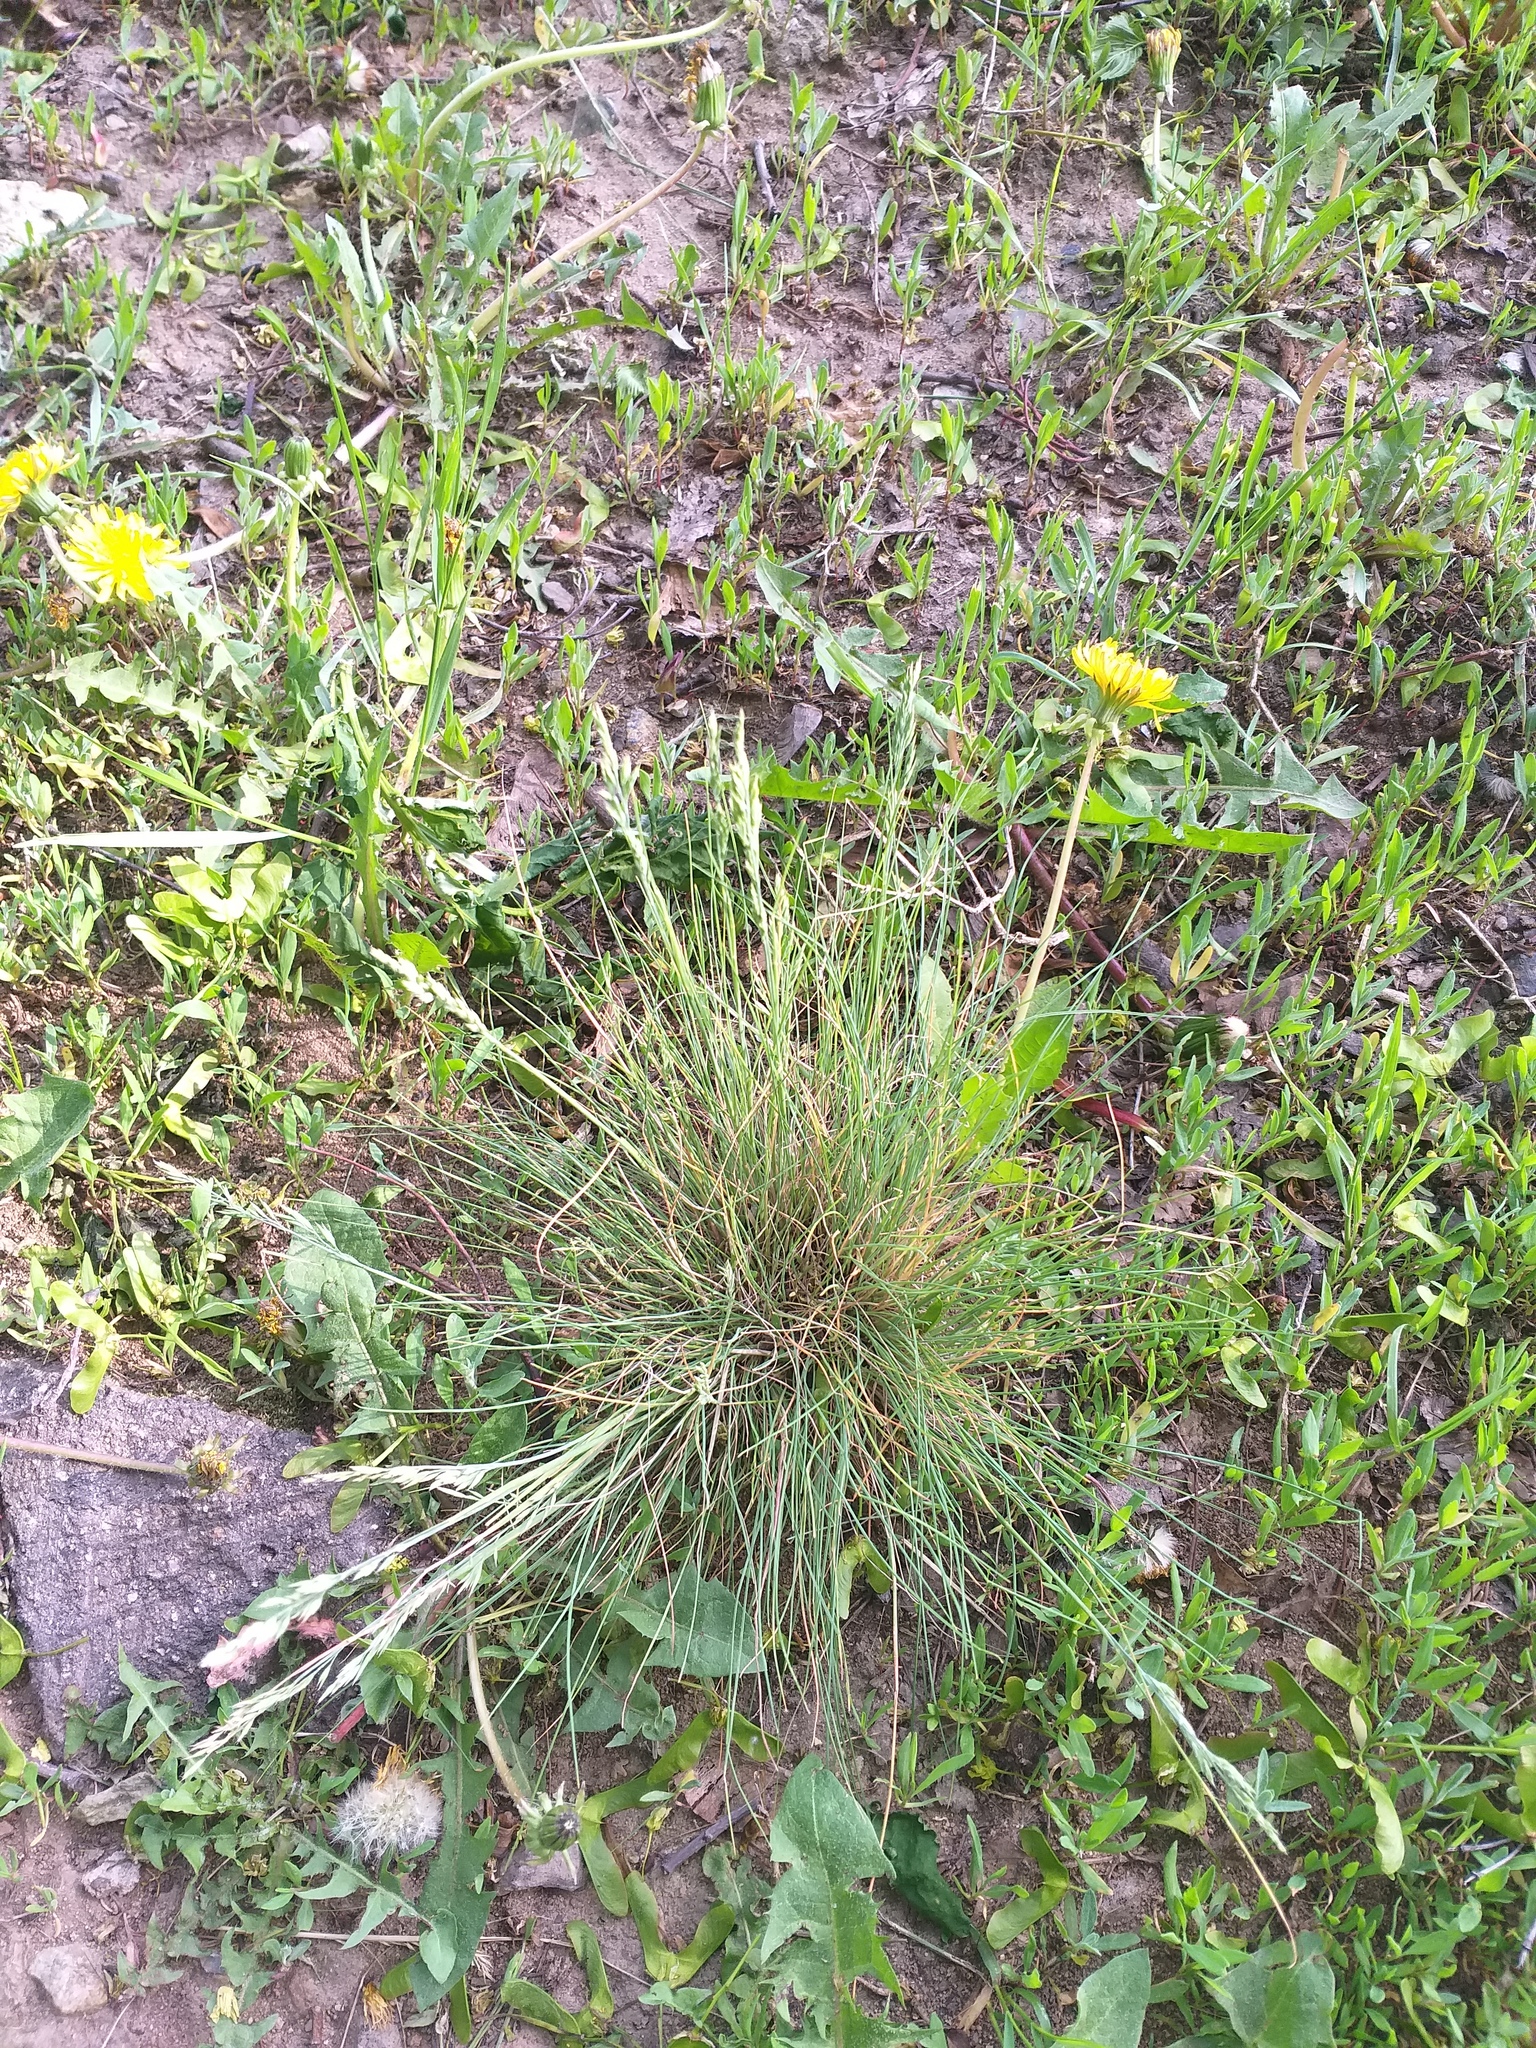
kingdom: Plantae
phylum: Tracheophyta
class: Liliopsida
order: Poales
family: Poaceae
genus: Festuca
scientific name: Festuca valesiaca
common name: Volga fescue
